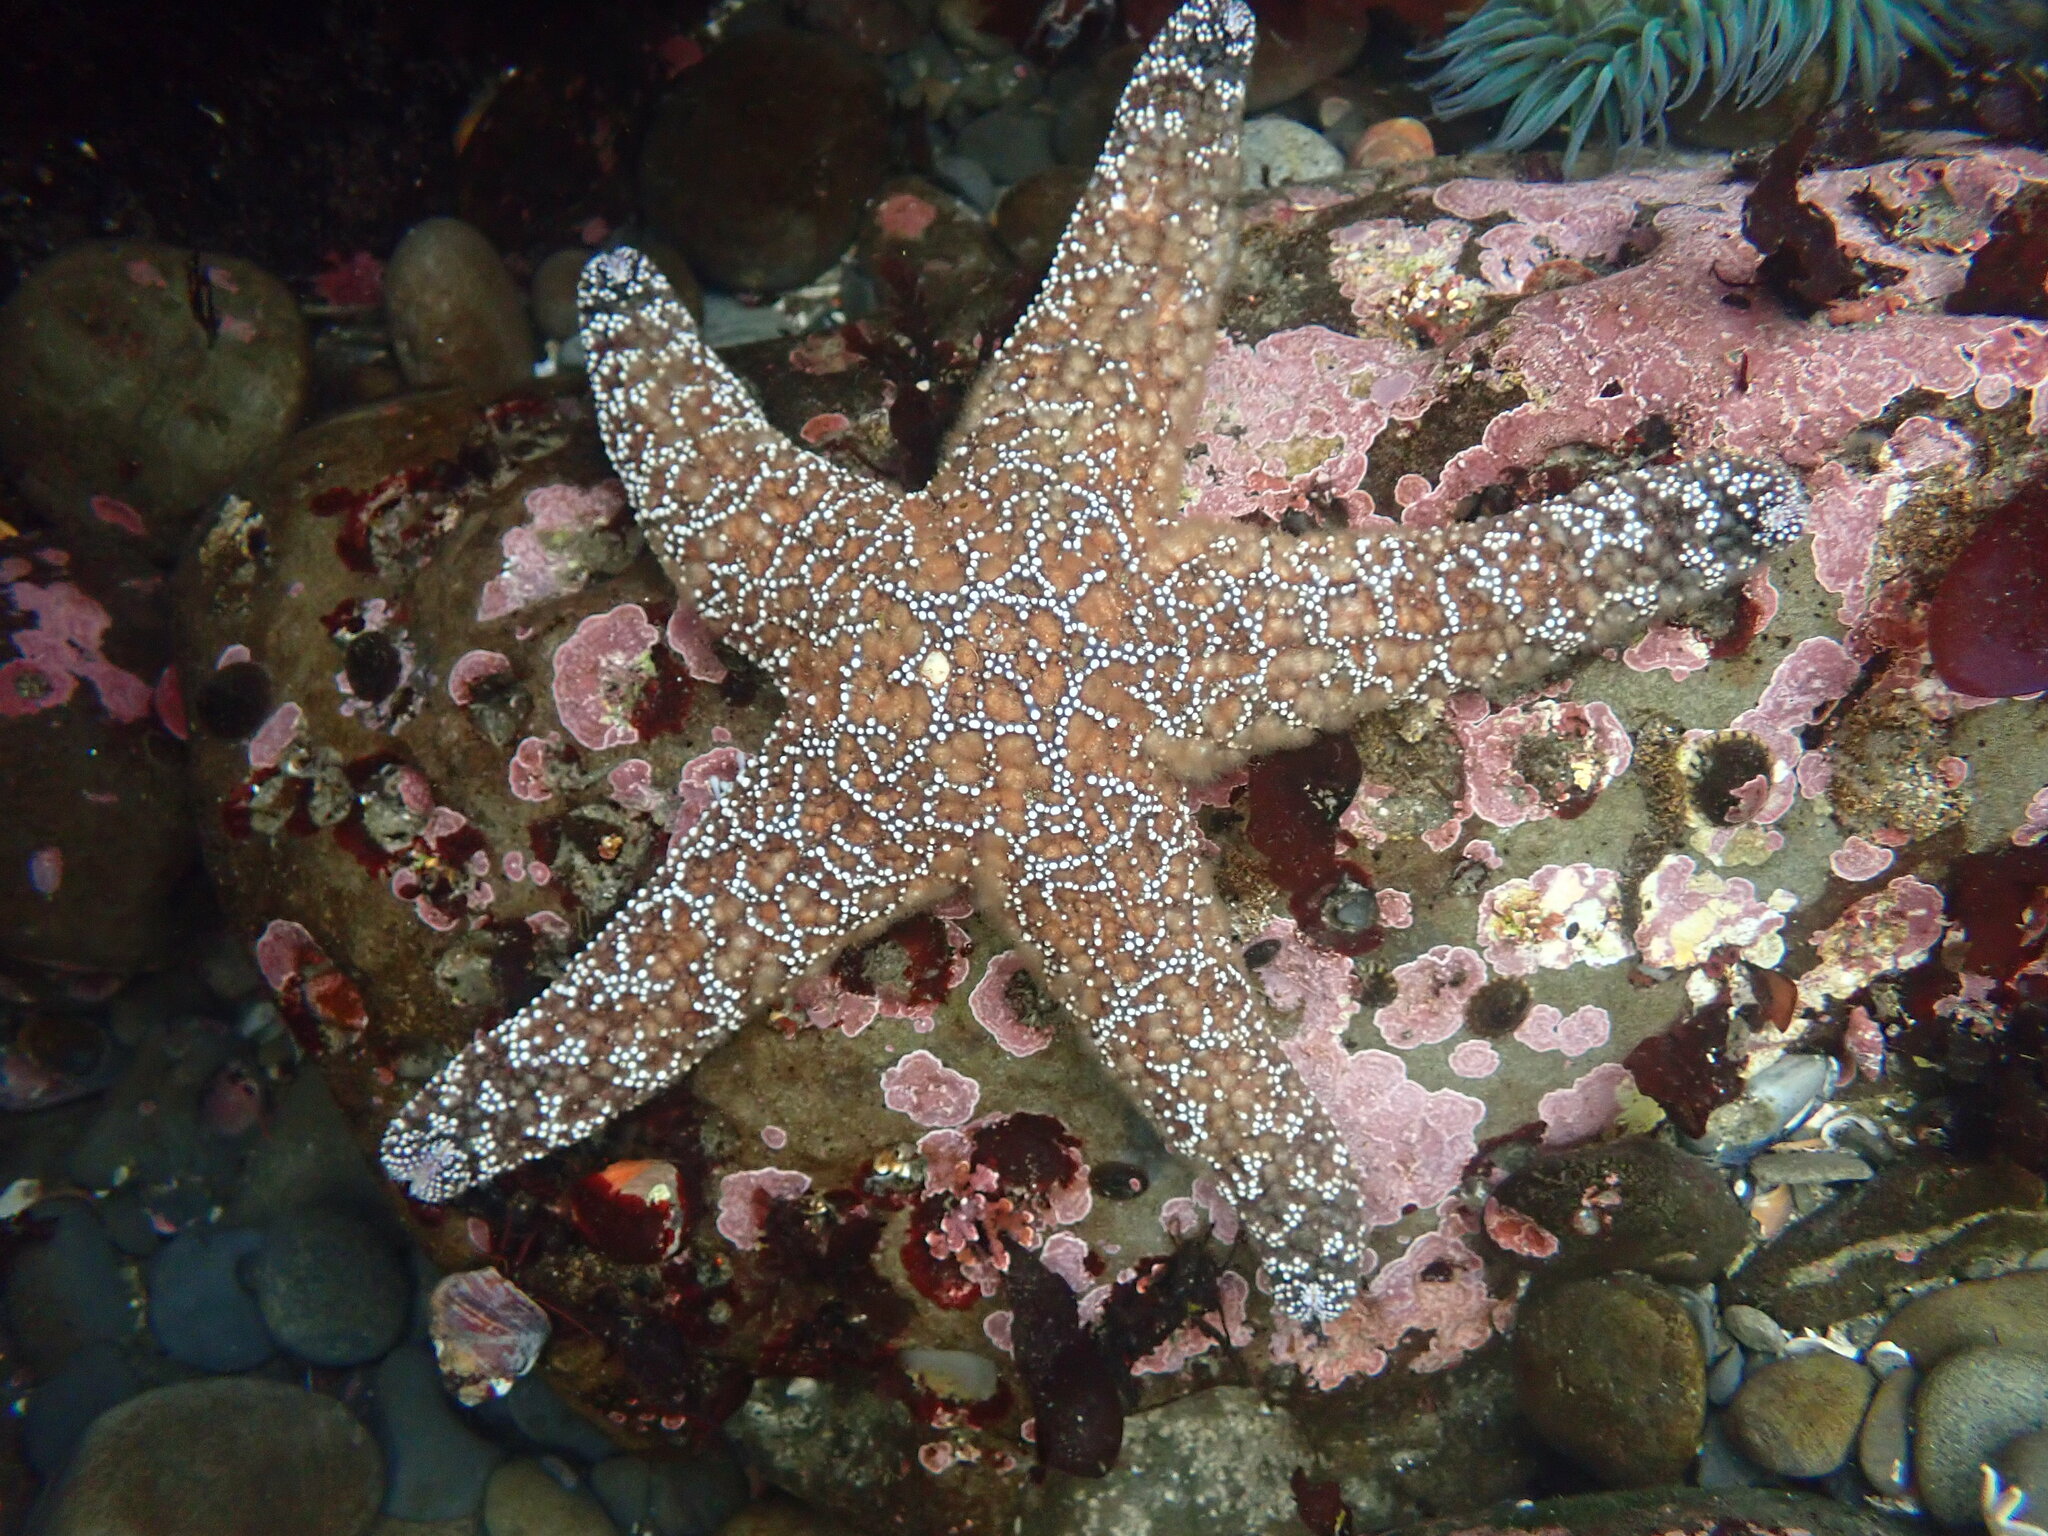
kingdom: Animalia
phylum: Echinodermata
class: Asteroidea
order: Forcipulatida
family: Asteriidae
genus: Pisaster
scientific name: Pisaster ochraceus
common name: Ochre stars
